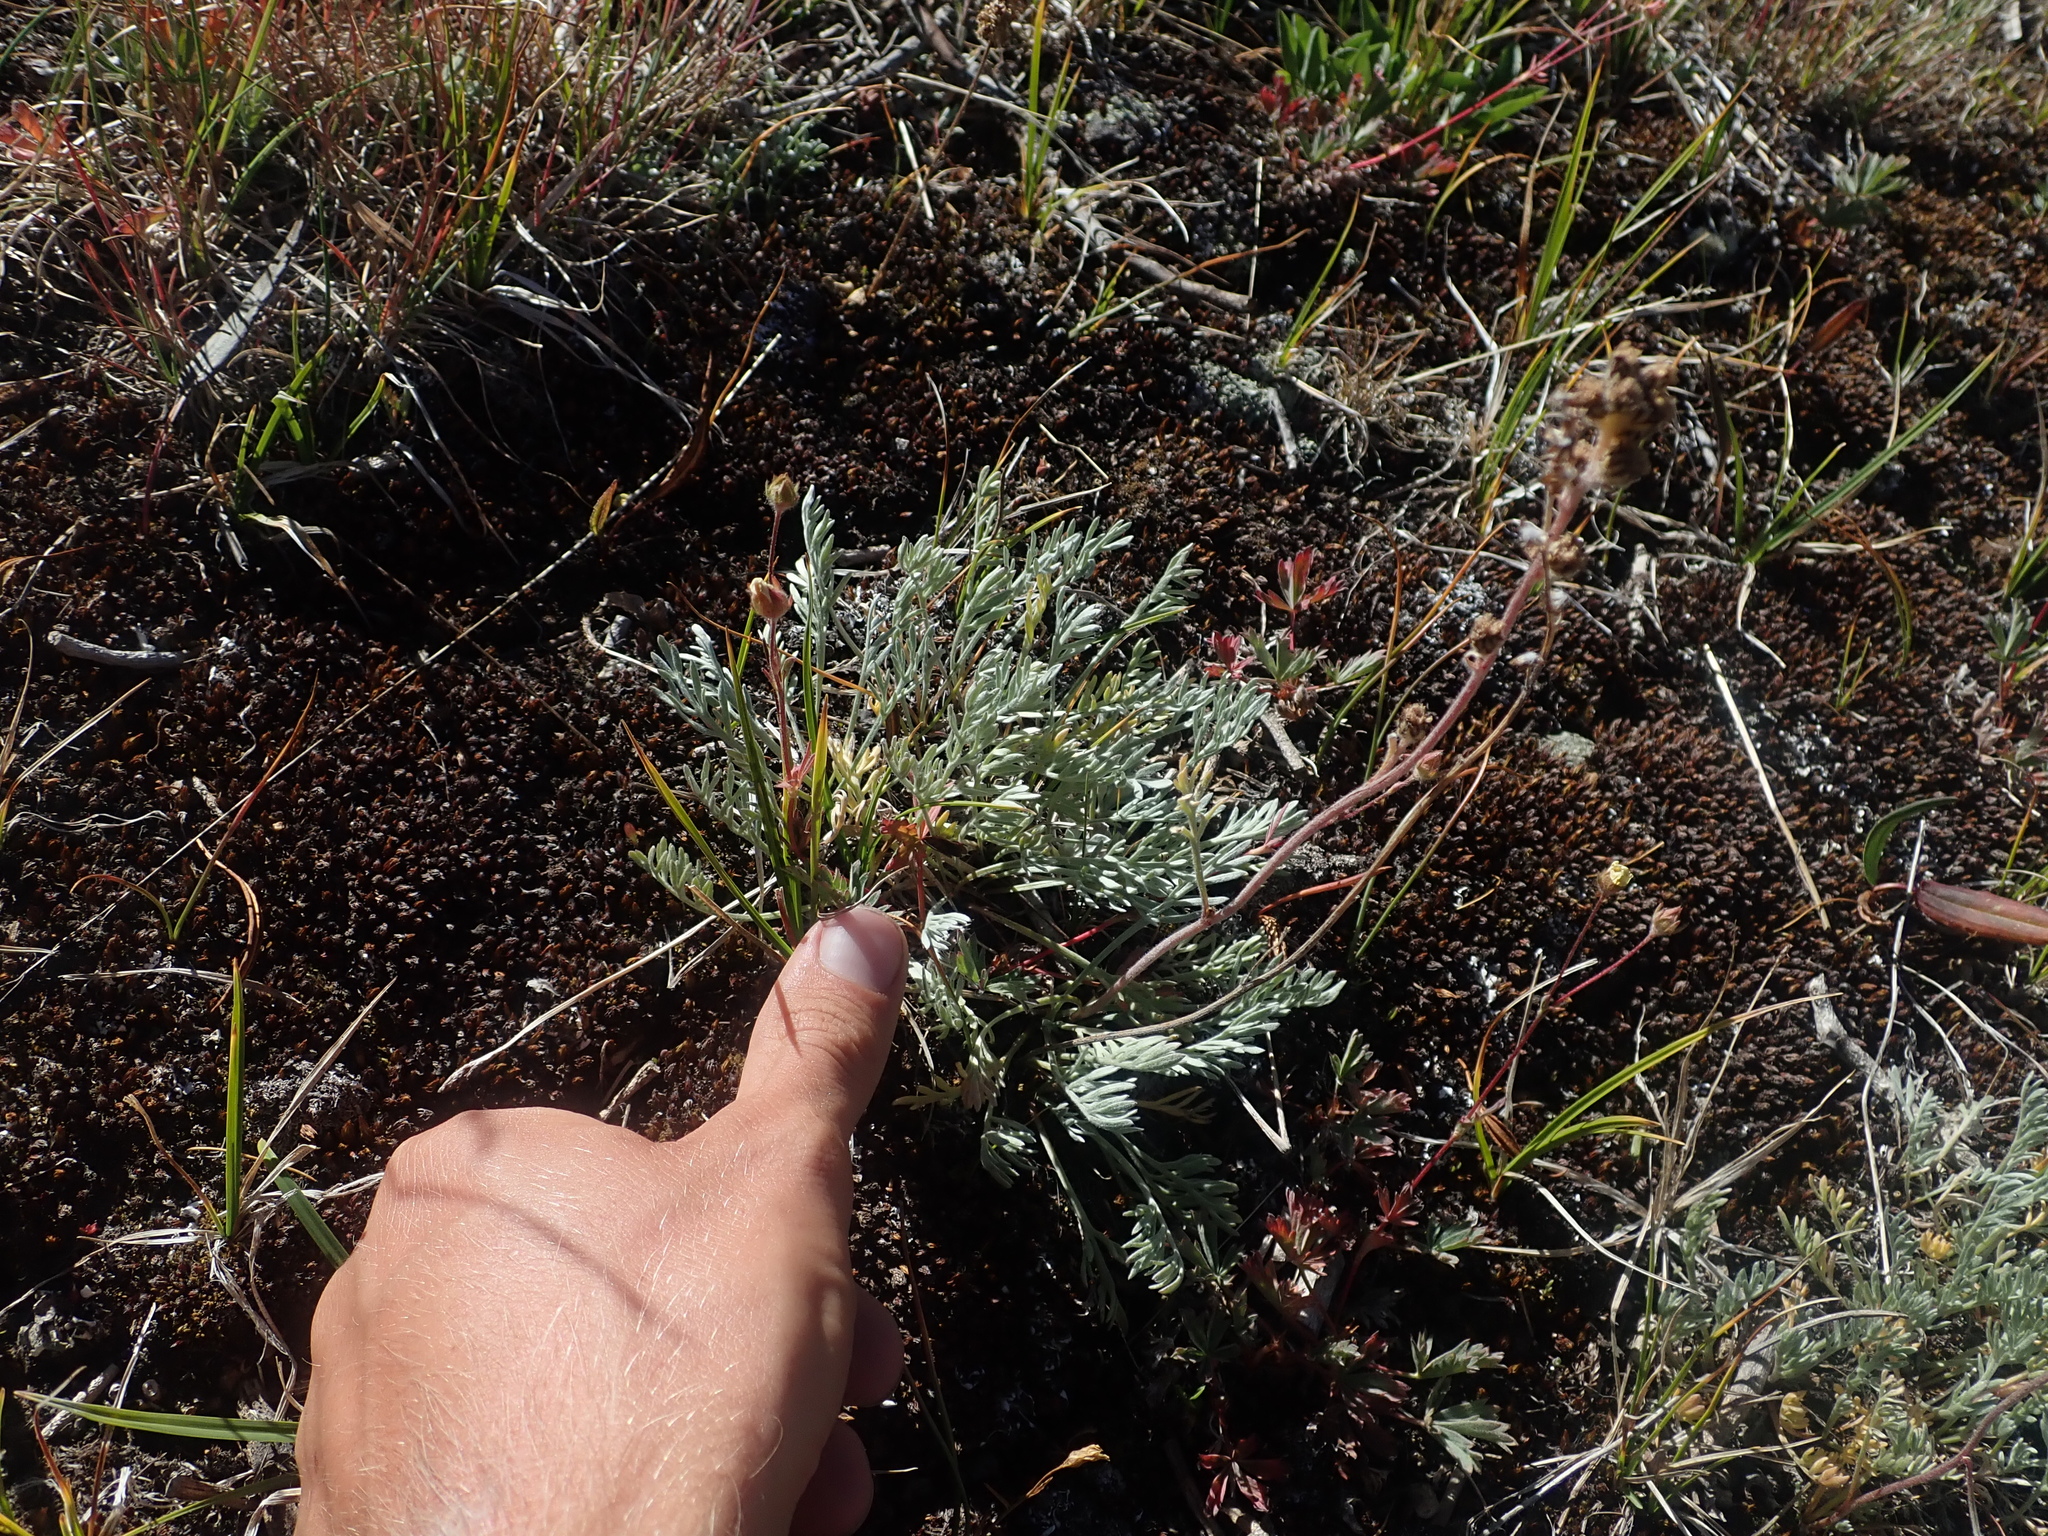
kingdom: Plantae
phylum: Tracheophyta
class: Magnoliopsida
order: Asterales
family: Asteraceae
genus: Artemisia
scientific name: Artemisia scopulorum
